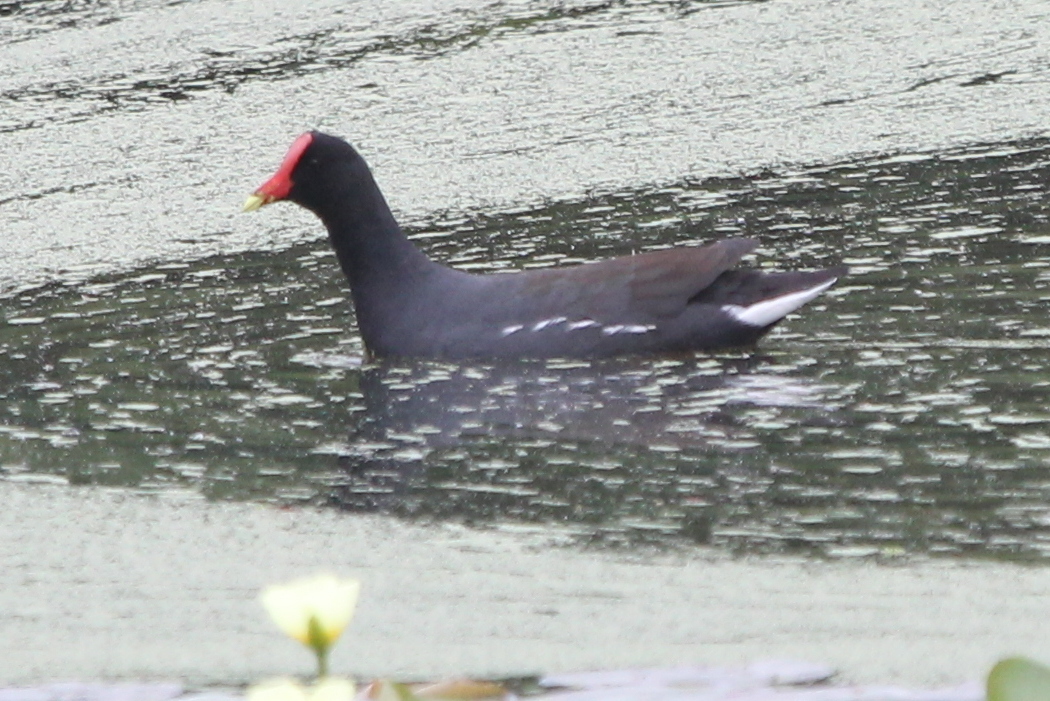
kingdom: Animalia
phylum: Chordata
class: Aves
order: Gruiformes
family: Rallidae
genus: Gallinula
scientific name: Gallinula chloropus
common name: Common moorhen
